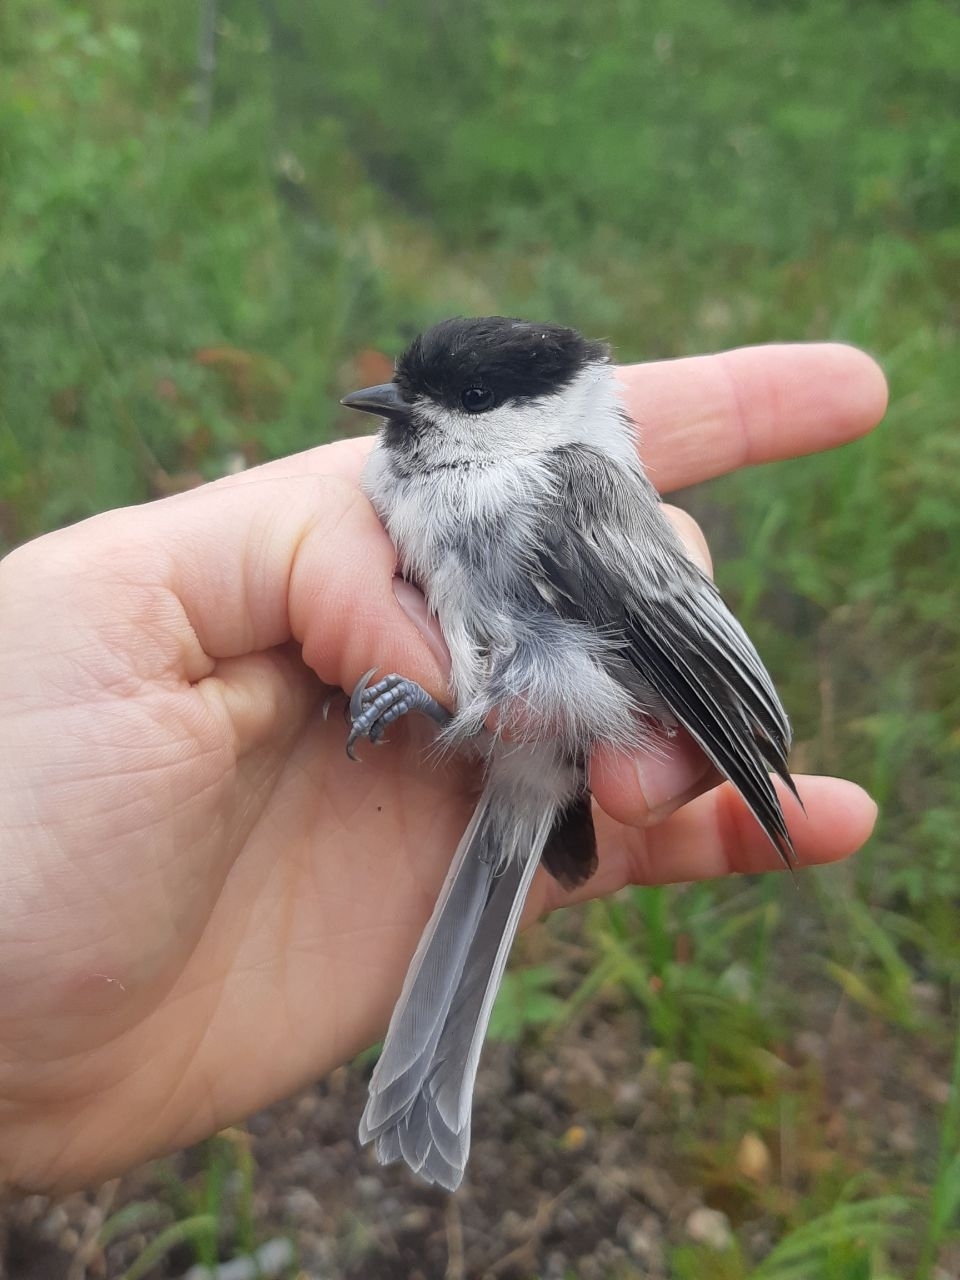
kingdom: Animalia
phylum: Chordata
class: Aves
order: Passeriformes
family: Paridae
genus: Poecile
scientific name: Poecile montanus
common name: Willow tit
